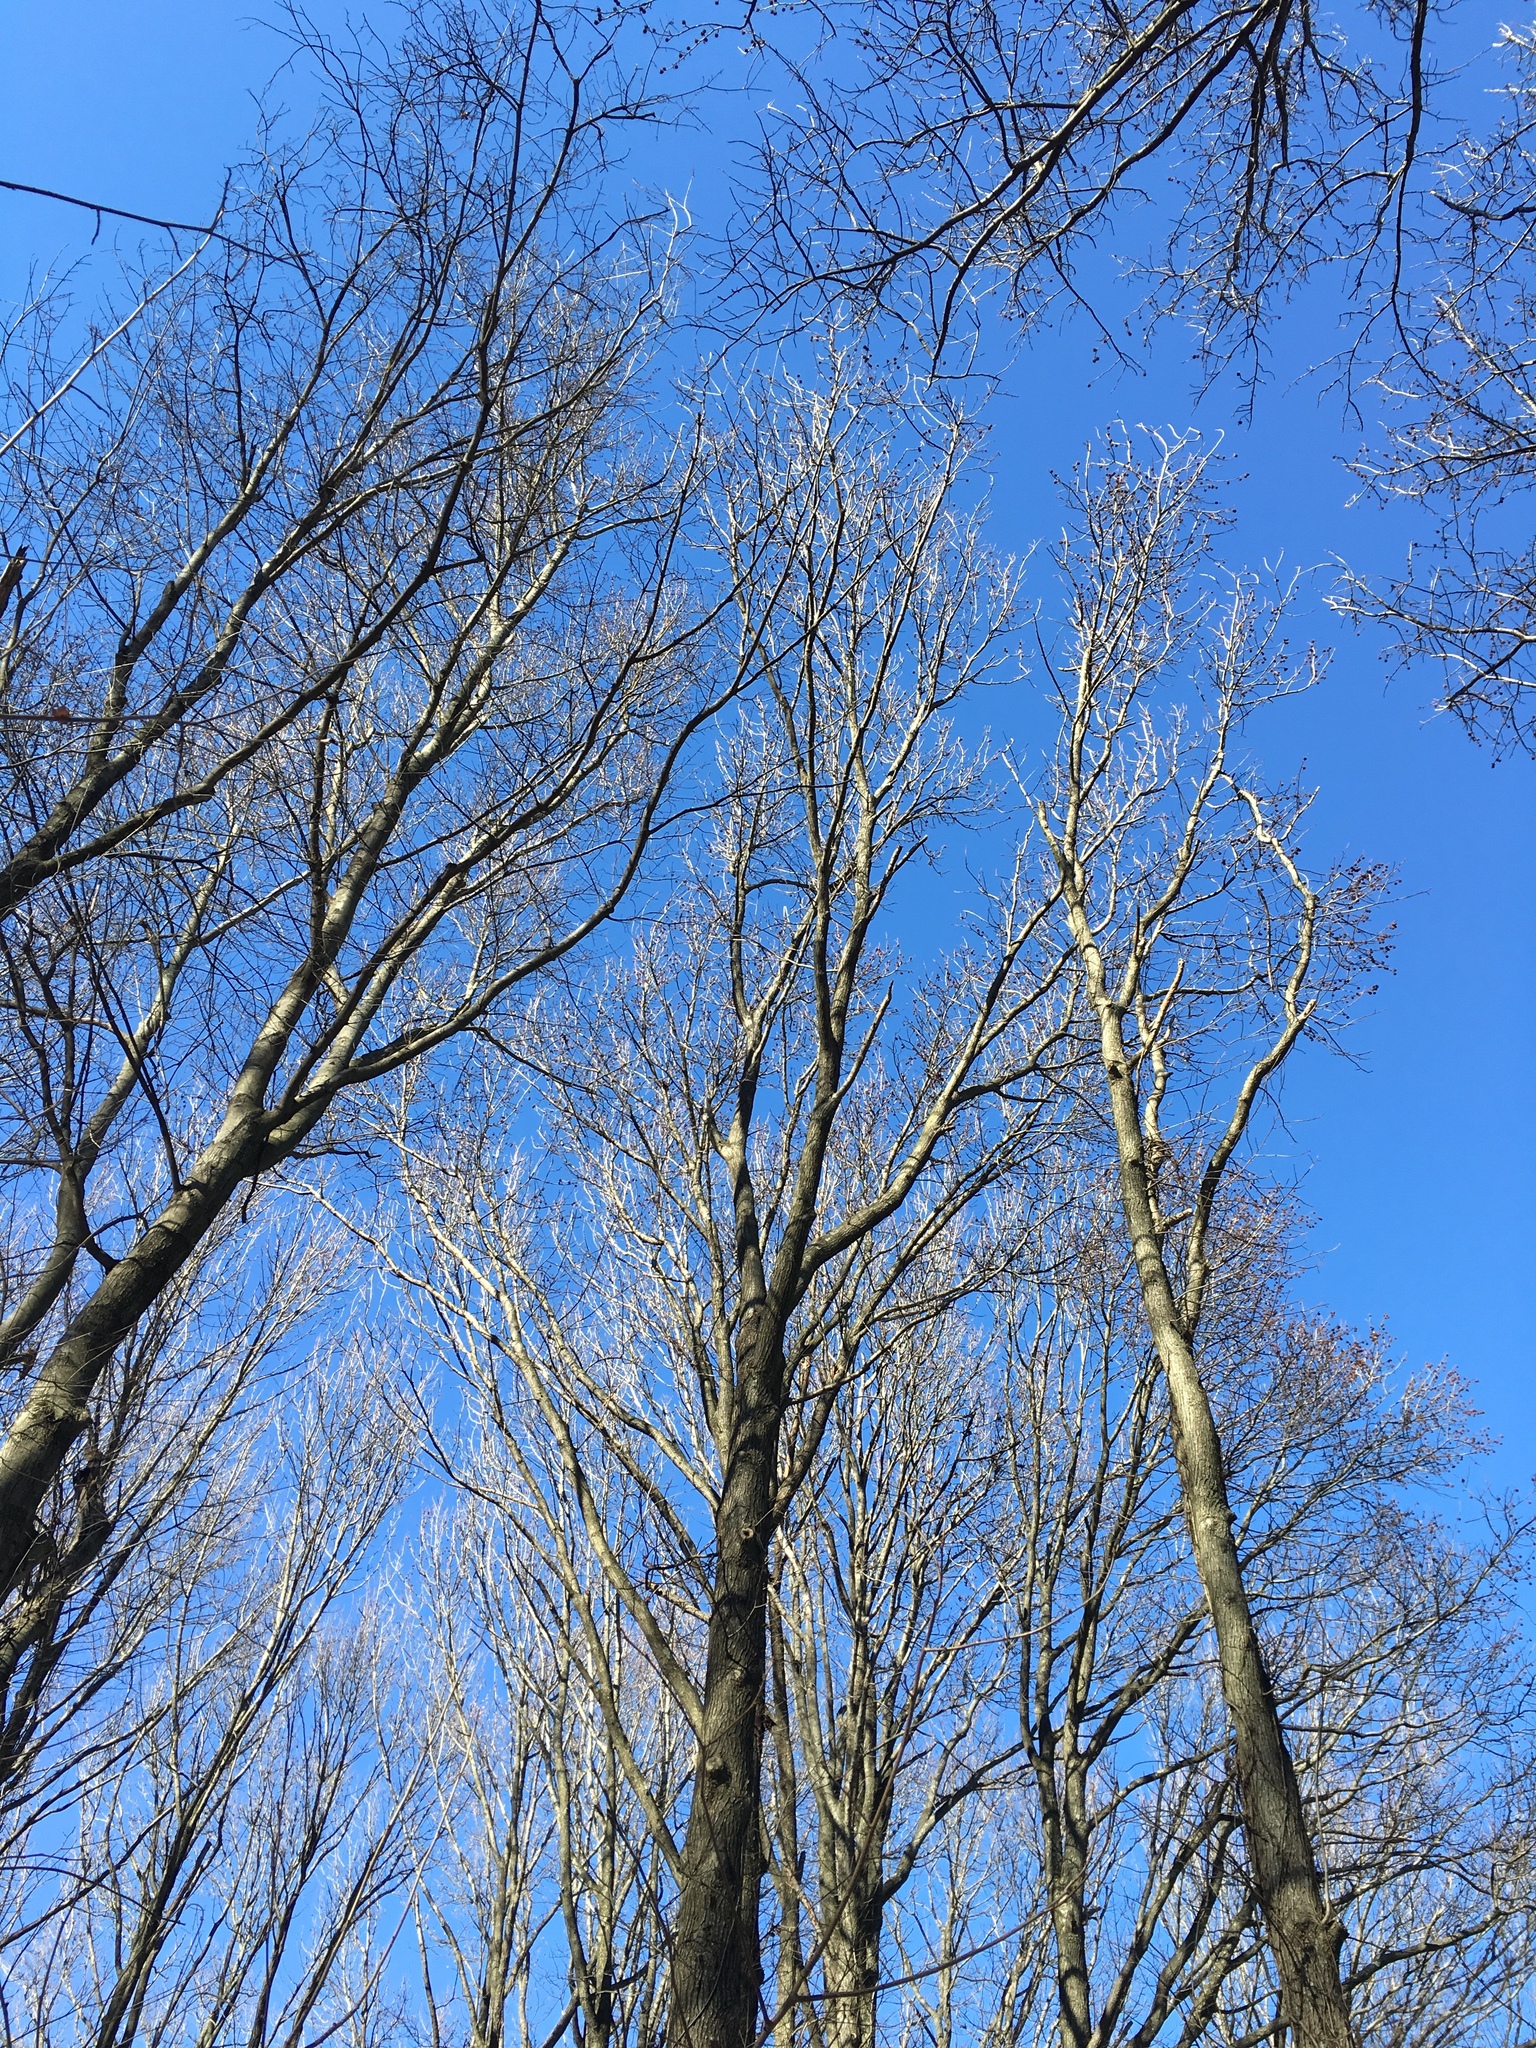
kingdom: Plantae
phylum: Tracheophyta
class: Magnoliopsida
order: Saxifragales
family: Altingiaceae
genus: Liquidambar
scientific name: Liquidambar styraciflua
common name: Sweet gum
